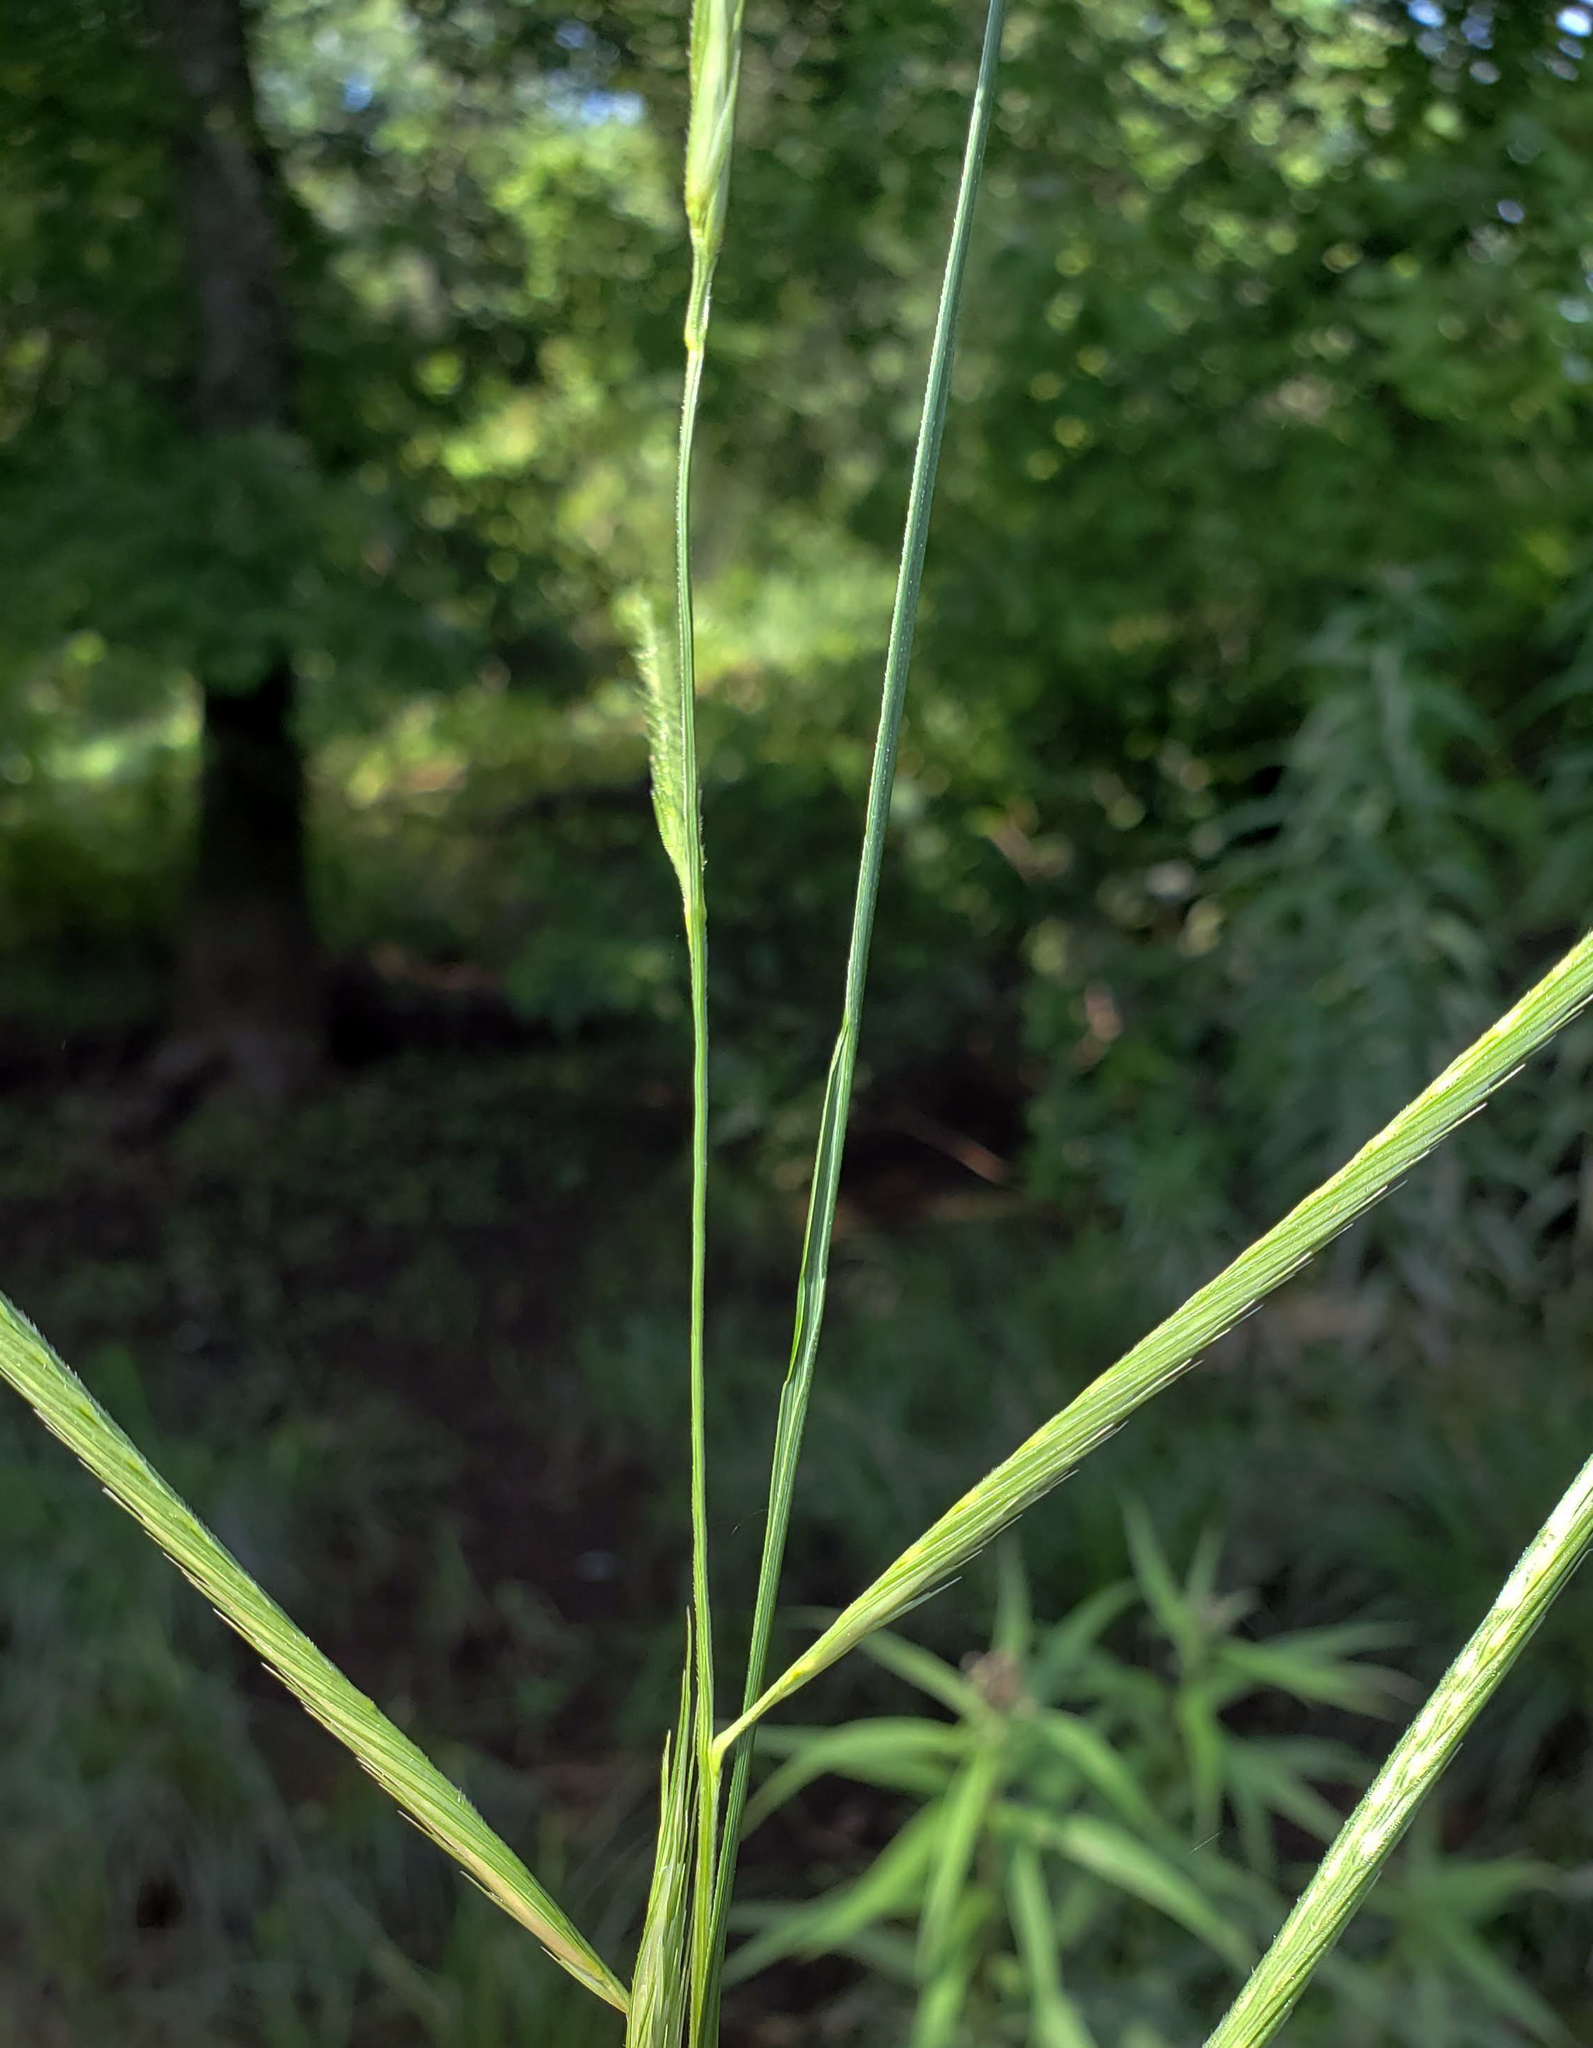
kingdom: Plantae
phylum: Tracheophyta
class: Liliopsida
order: Poales
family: Poaceae
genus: Sporobolus
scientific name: Sporobolus michauxianus
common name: Freshwater cordgrass
